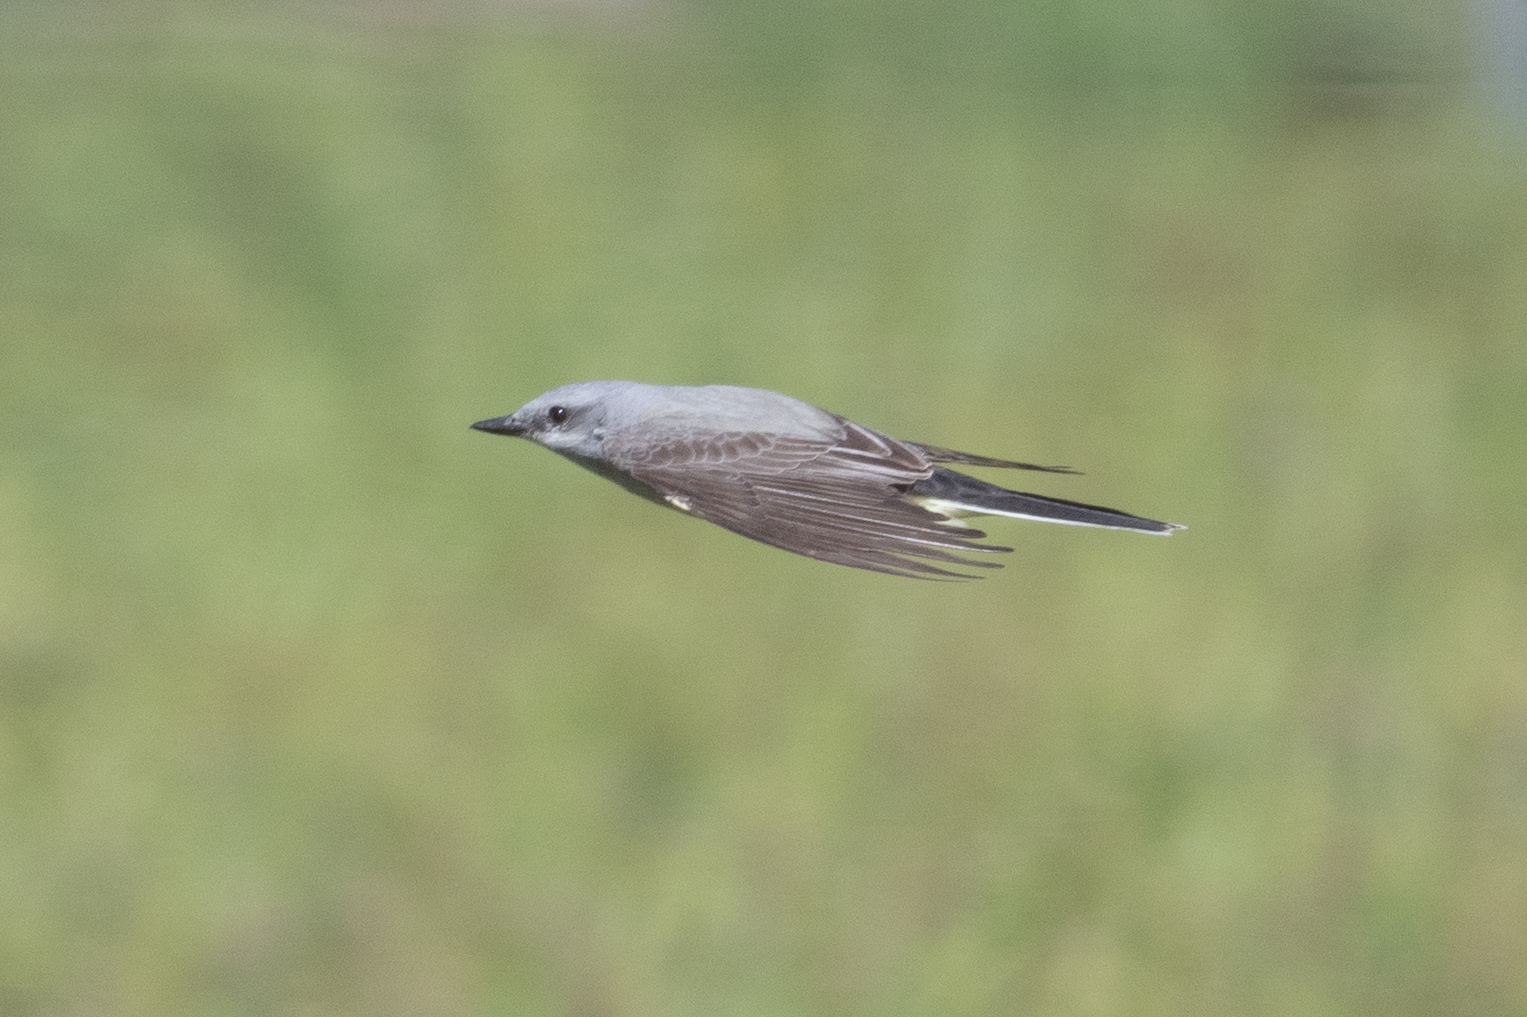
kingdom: Animalia
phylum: Chordata
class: Aves
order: Passeriformes
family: Tyrannidae
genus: Tyrannus
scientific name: Tyrannus verticalis
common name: Western kingbird
